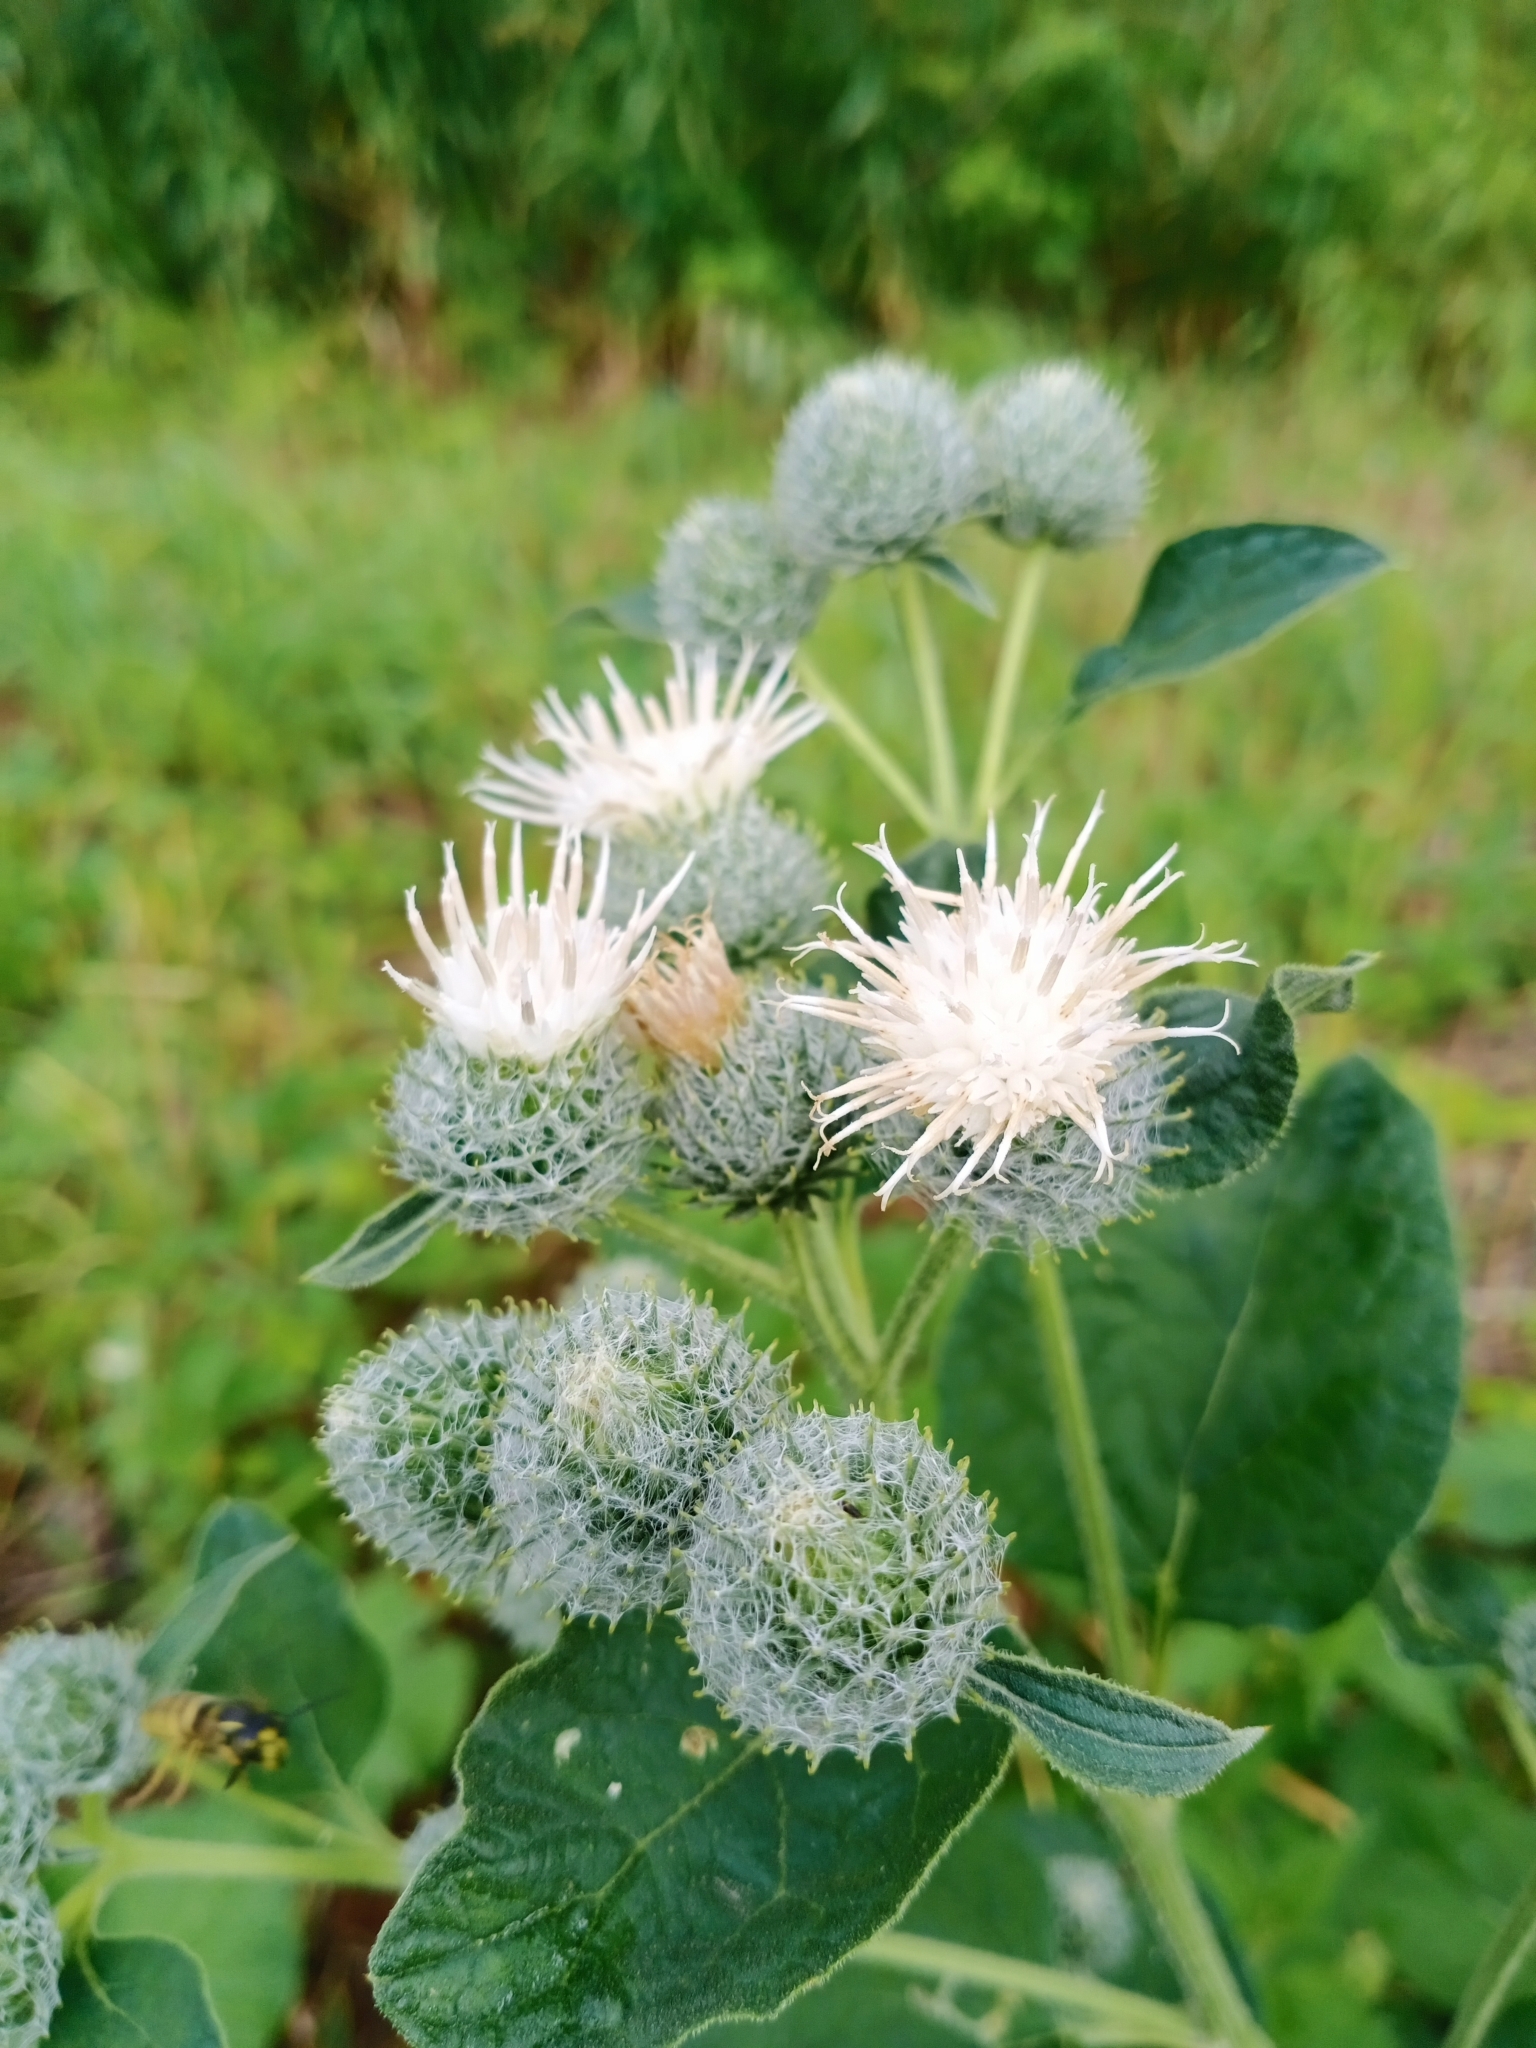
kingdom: Plantae
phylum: Tracheophyta
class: Magnoliopsida
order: Asterales
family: Asteraceae
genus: Arctium
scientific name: Arctium tomentosum
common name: Woolly burdock
